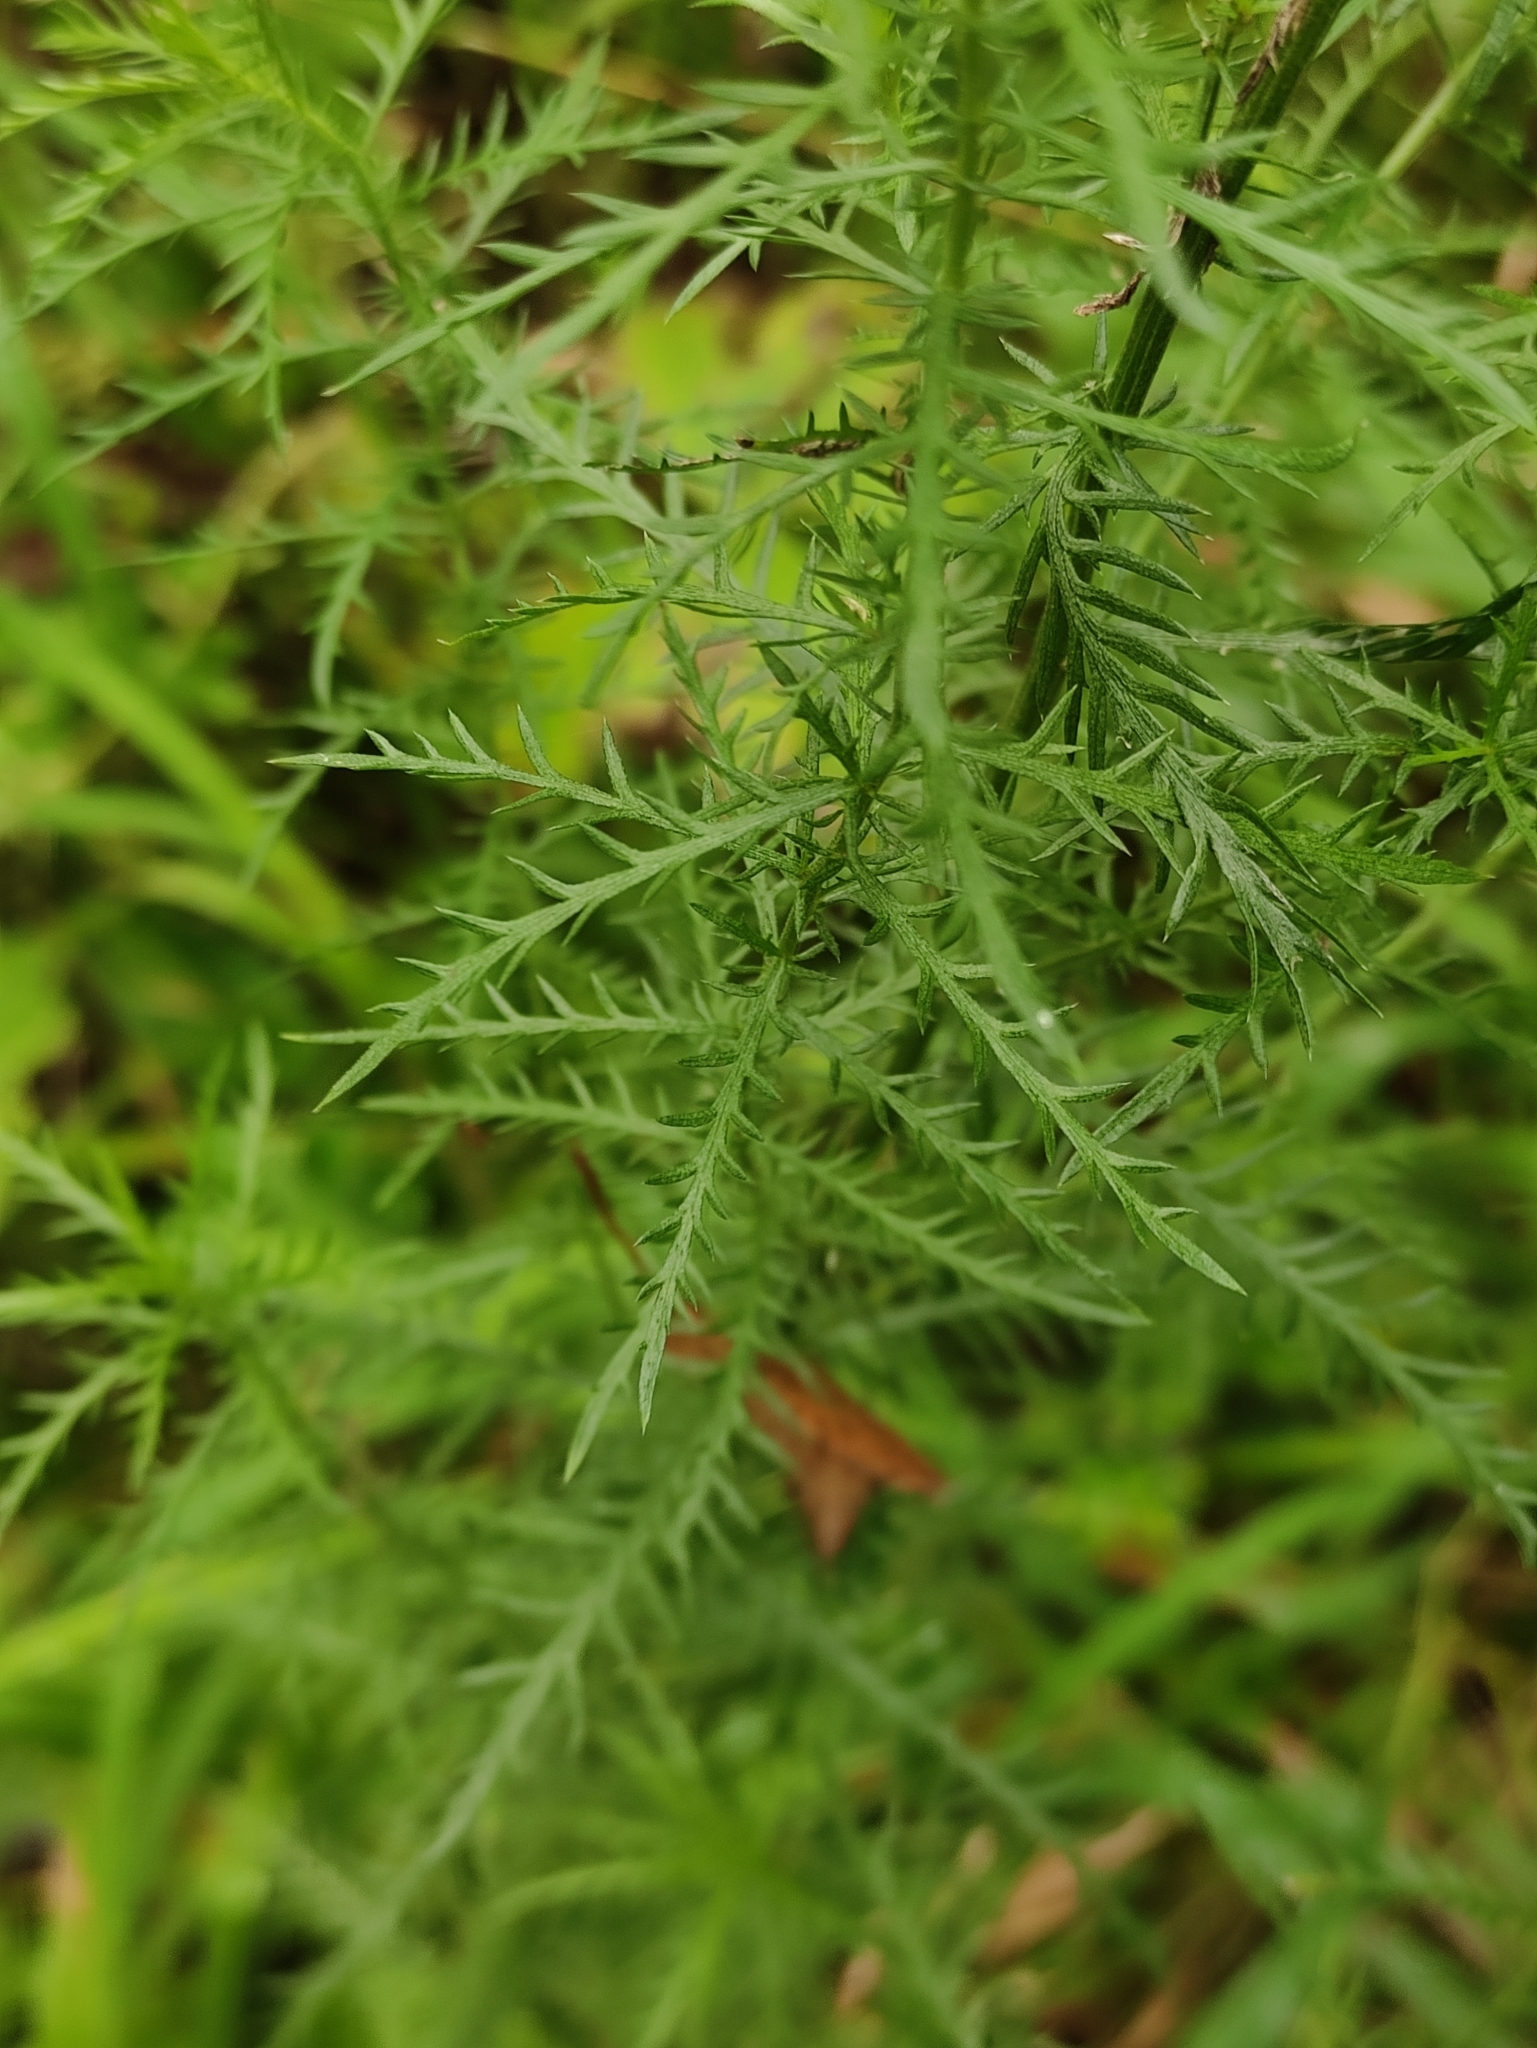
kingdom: Plantae
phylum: Tracheophyta
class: Magnoliopsida
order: Asterales
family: Asteraceae
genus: Achillea
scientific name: Achillea impatiens
